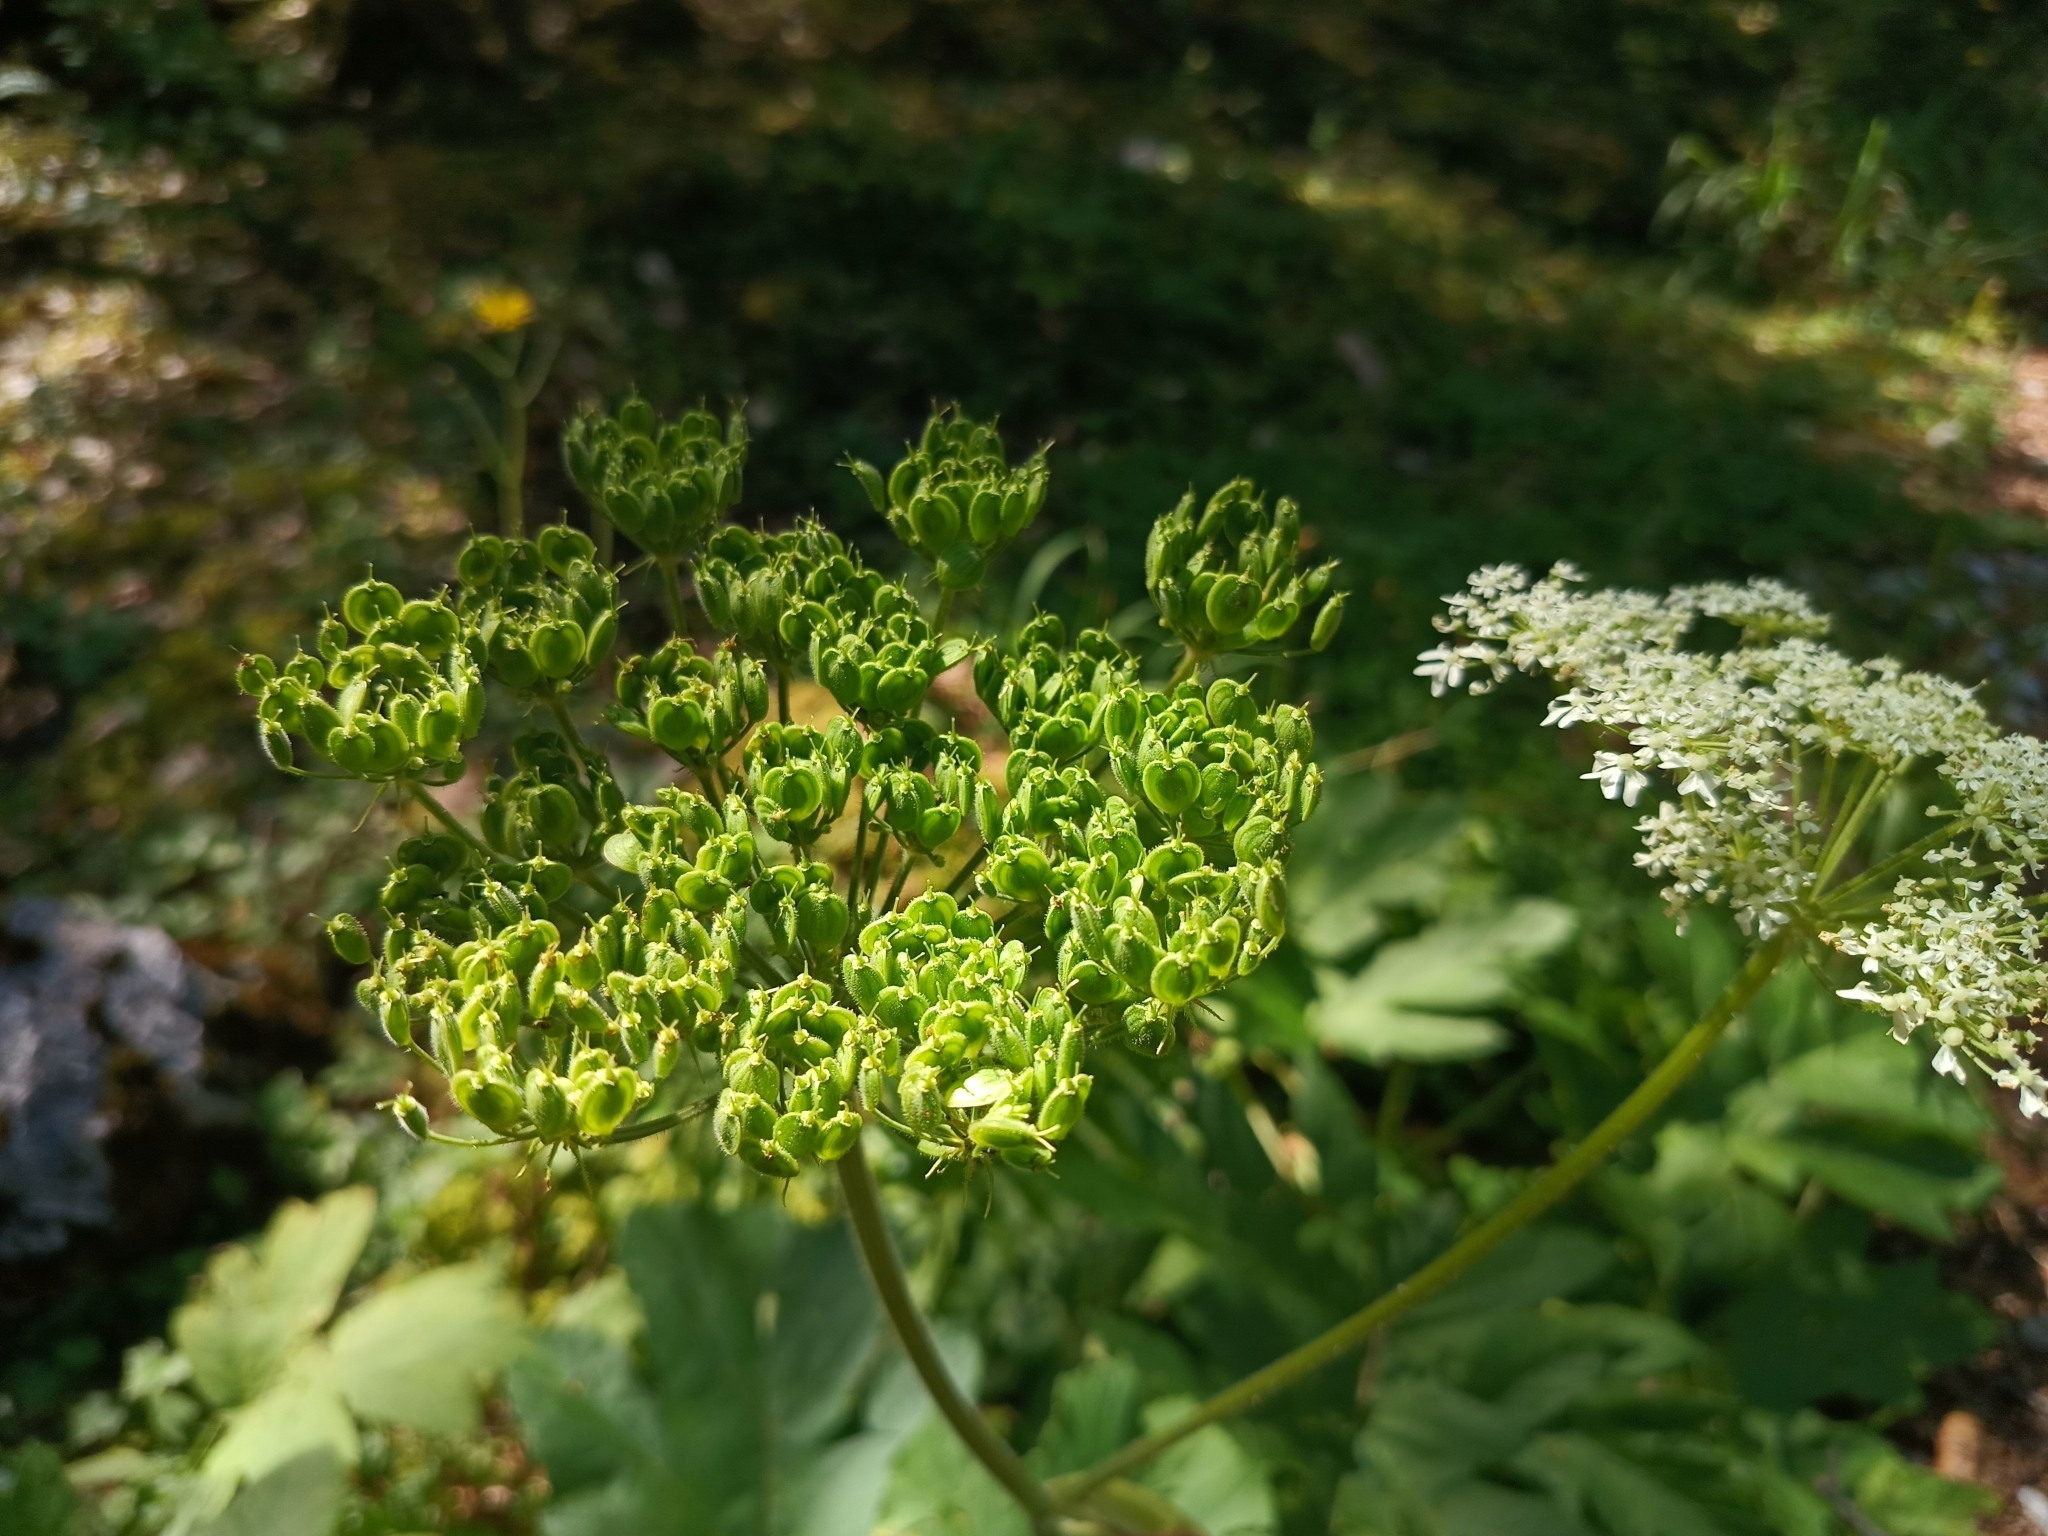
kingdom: Plantae
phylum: Tracheophyta
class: Magnoliopsida
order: Apiales
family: Apiaceae
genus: Heracleum
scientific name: Heracleum sphondylium
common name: Hogweed
